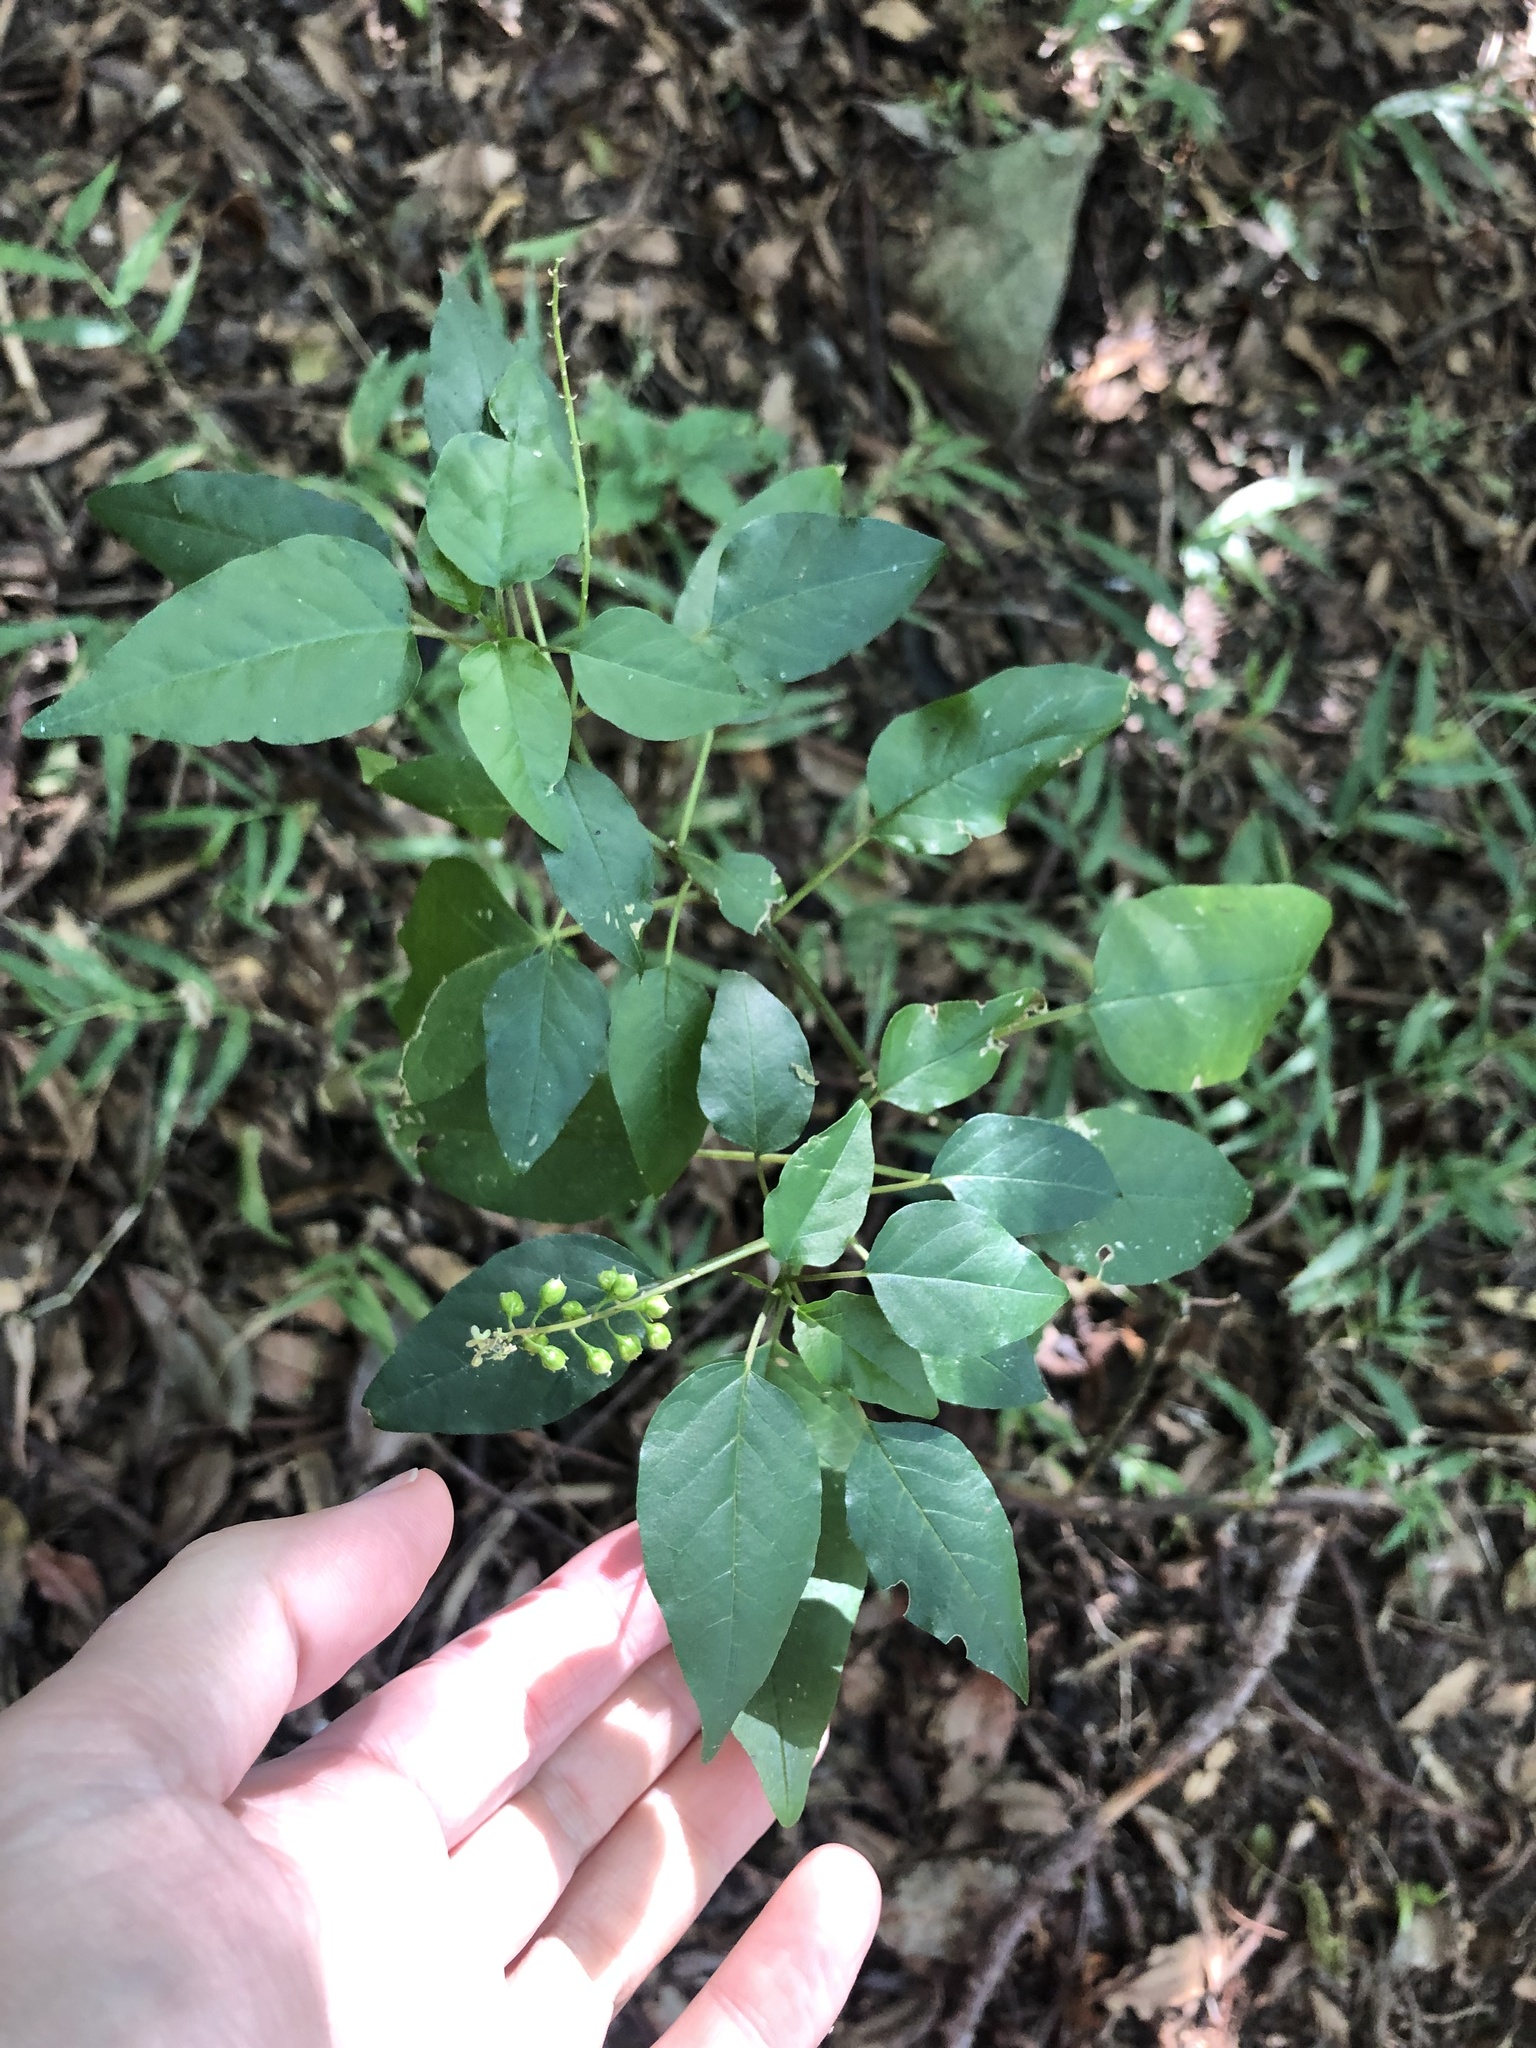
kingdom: Plantae
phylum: Tracheophyta
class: Magnoliopsida
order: Caryophyllales
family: Phytolaccaceae
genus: Rivina
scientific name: Rivina humilis
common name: Rougeplant
